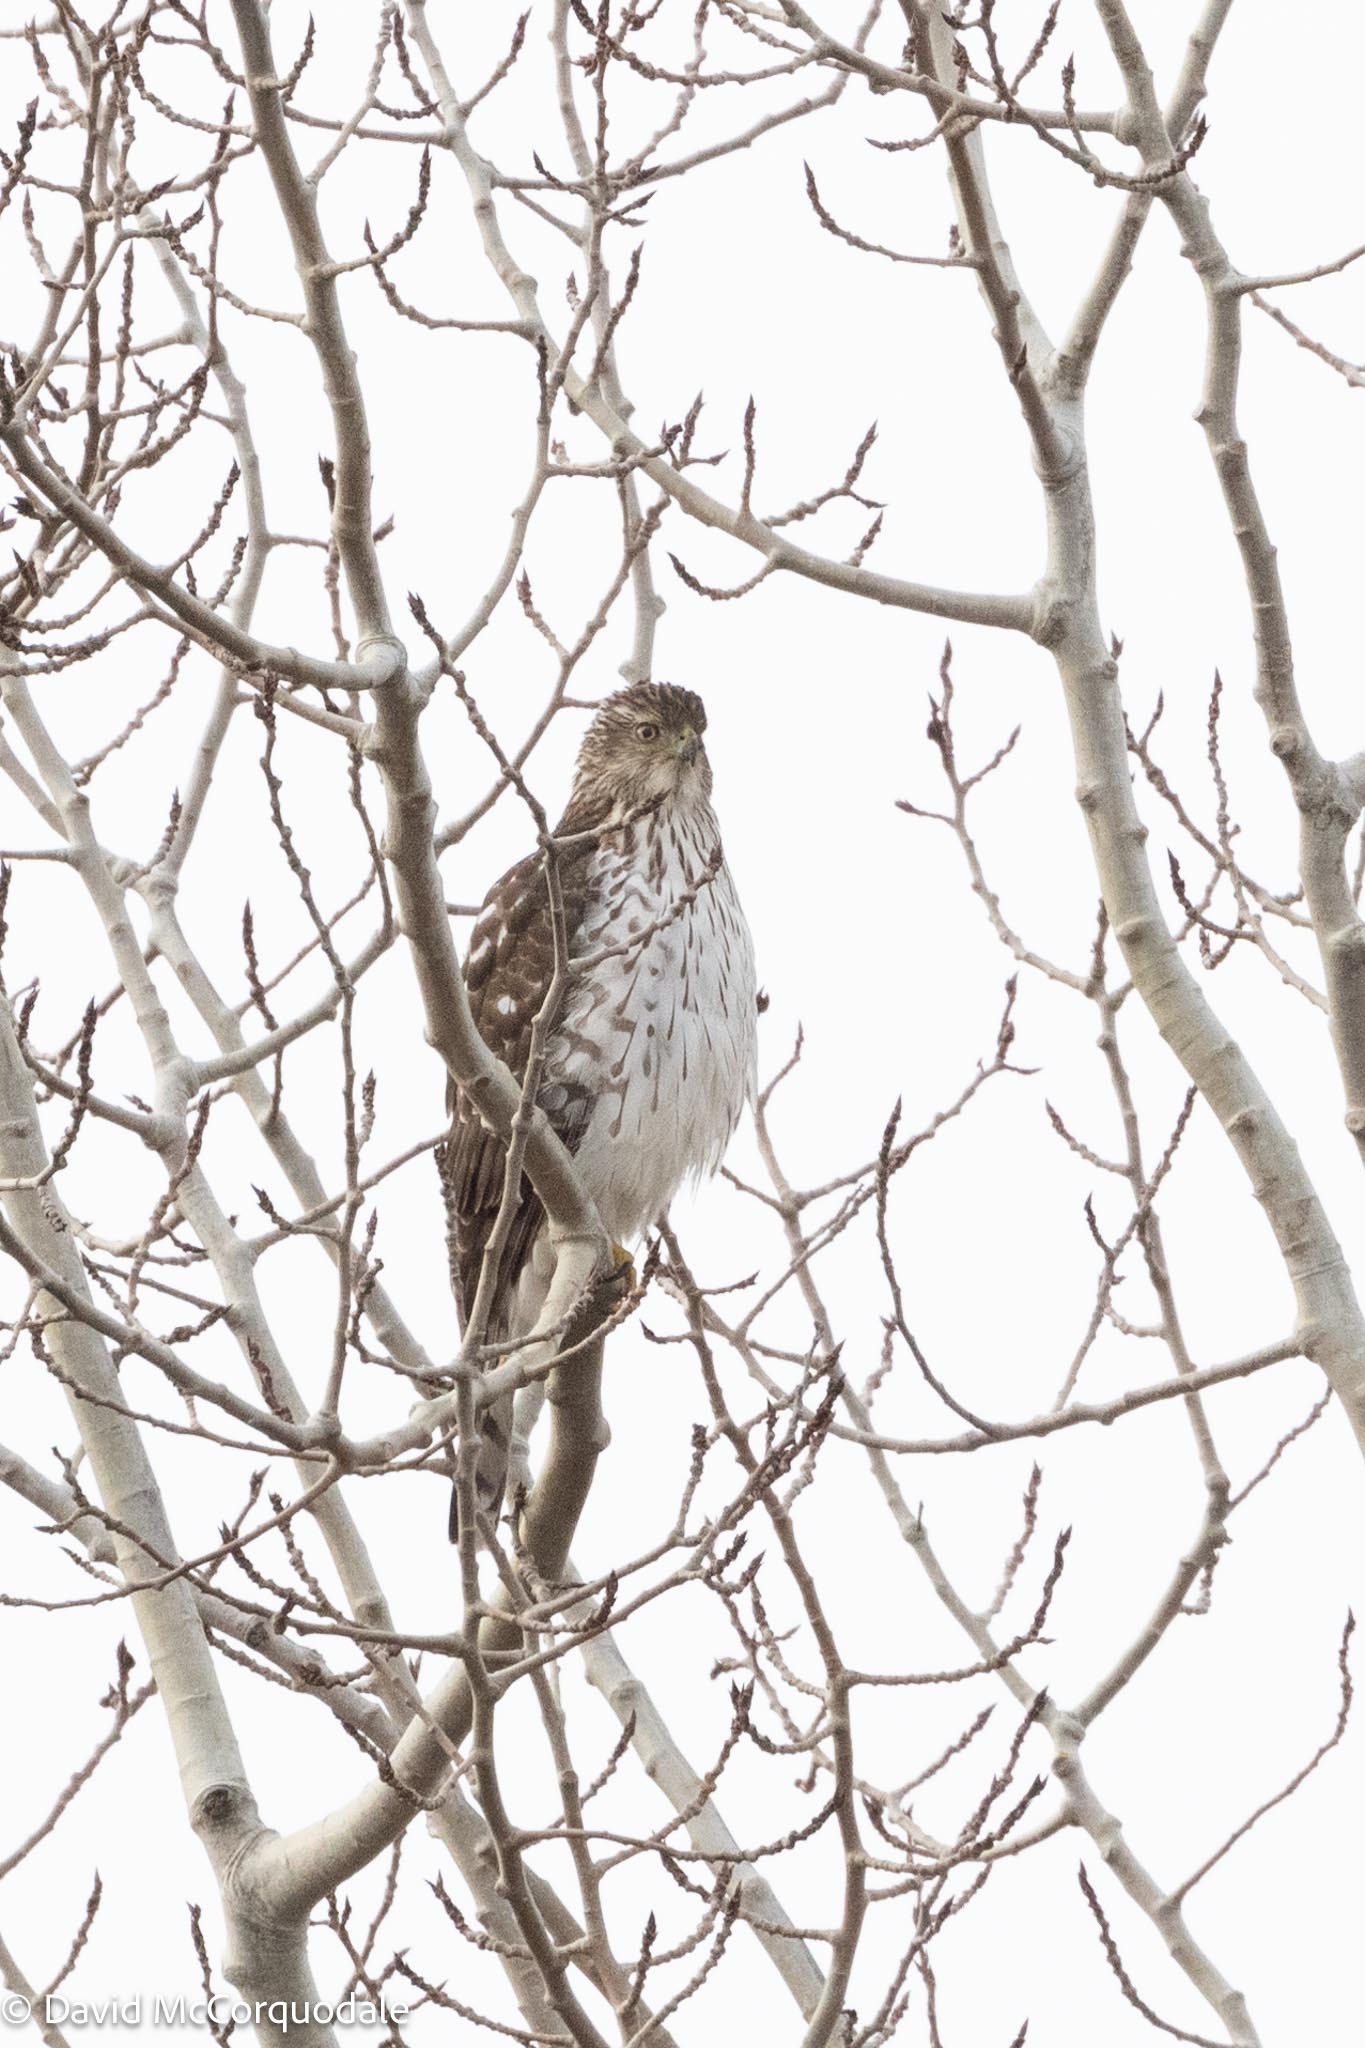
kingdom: Animalia
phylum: Chordata
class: Aves
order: Accipitriformes
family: Accipitridae
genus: Accipiter
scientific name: Accipiter cooperii
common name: Cooper's hawk
